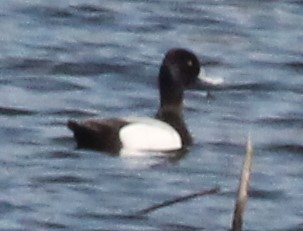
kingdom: Animalia
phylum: Chordata
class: Aves
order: Anseriformes
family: Anatidae
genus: Aythya
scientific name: Aythya affinis
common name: Lesser scaup
